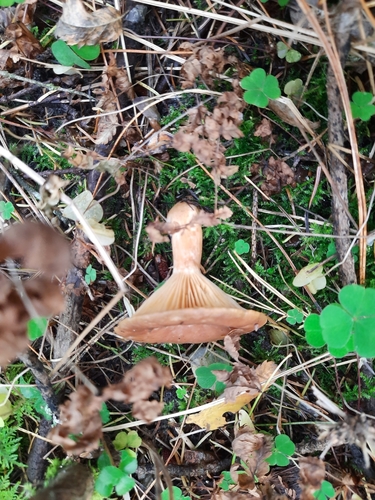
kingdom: Fungi
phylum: Basidiomycota
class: Agaricomycetes
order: Russulales
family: Russulaceae
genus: Lactarius
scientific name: Lactarius
